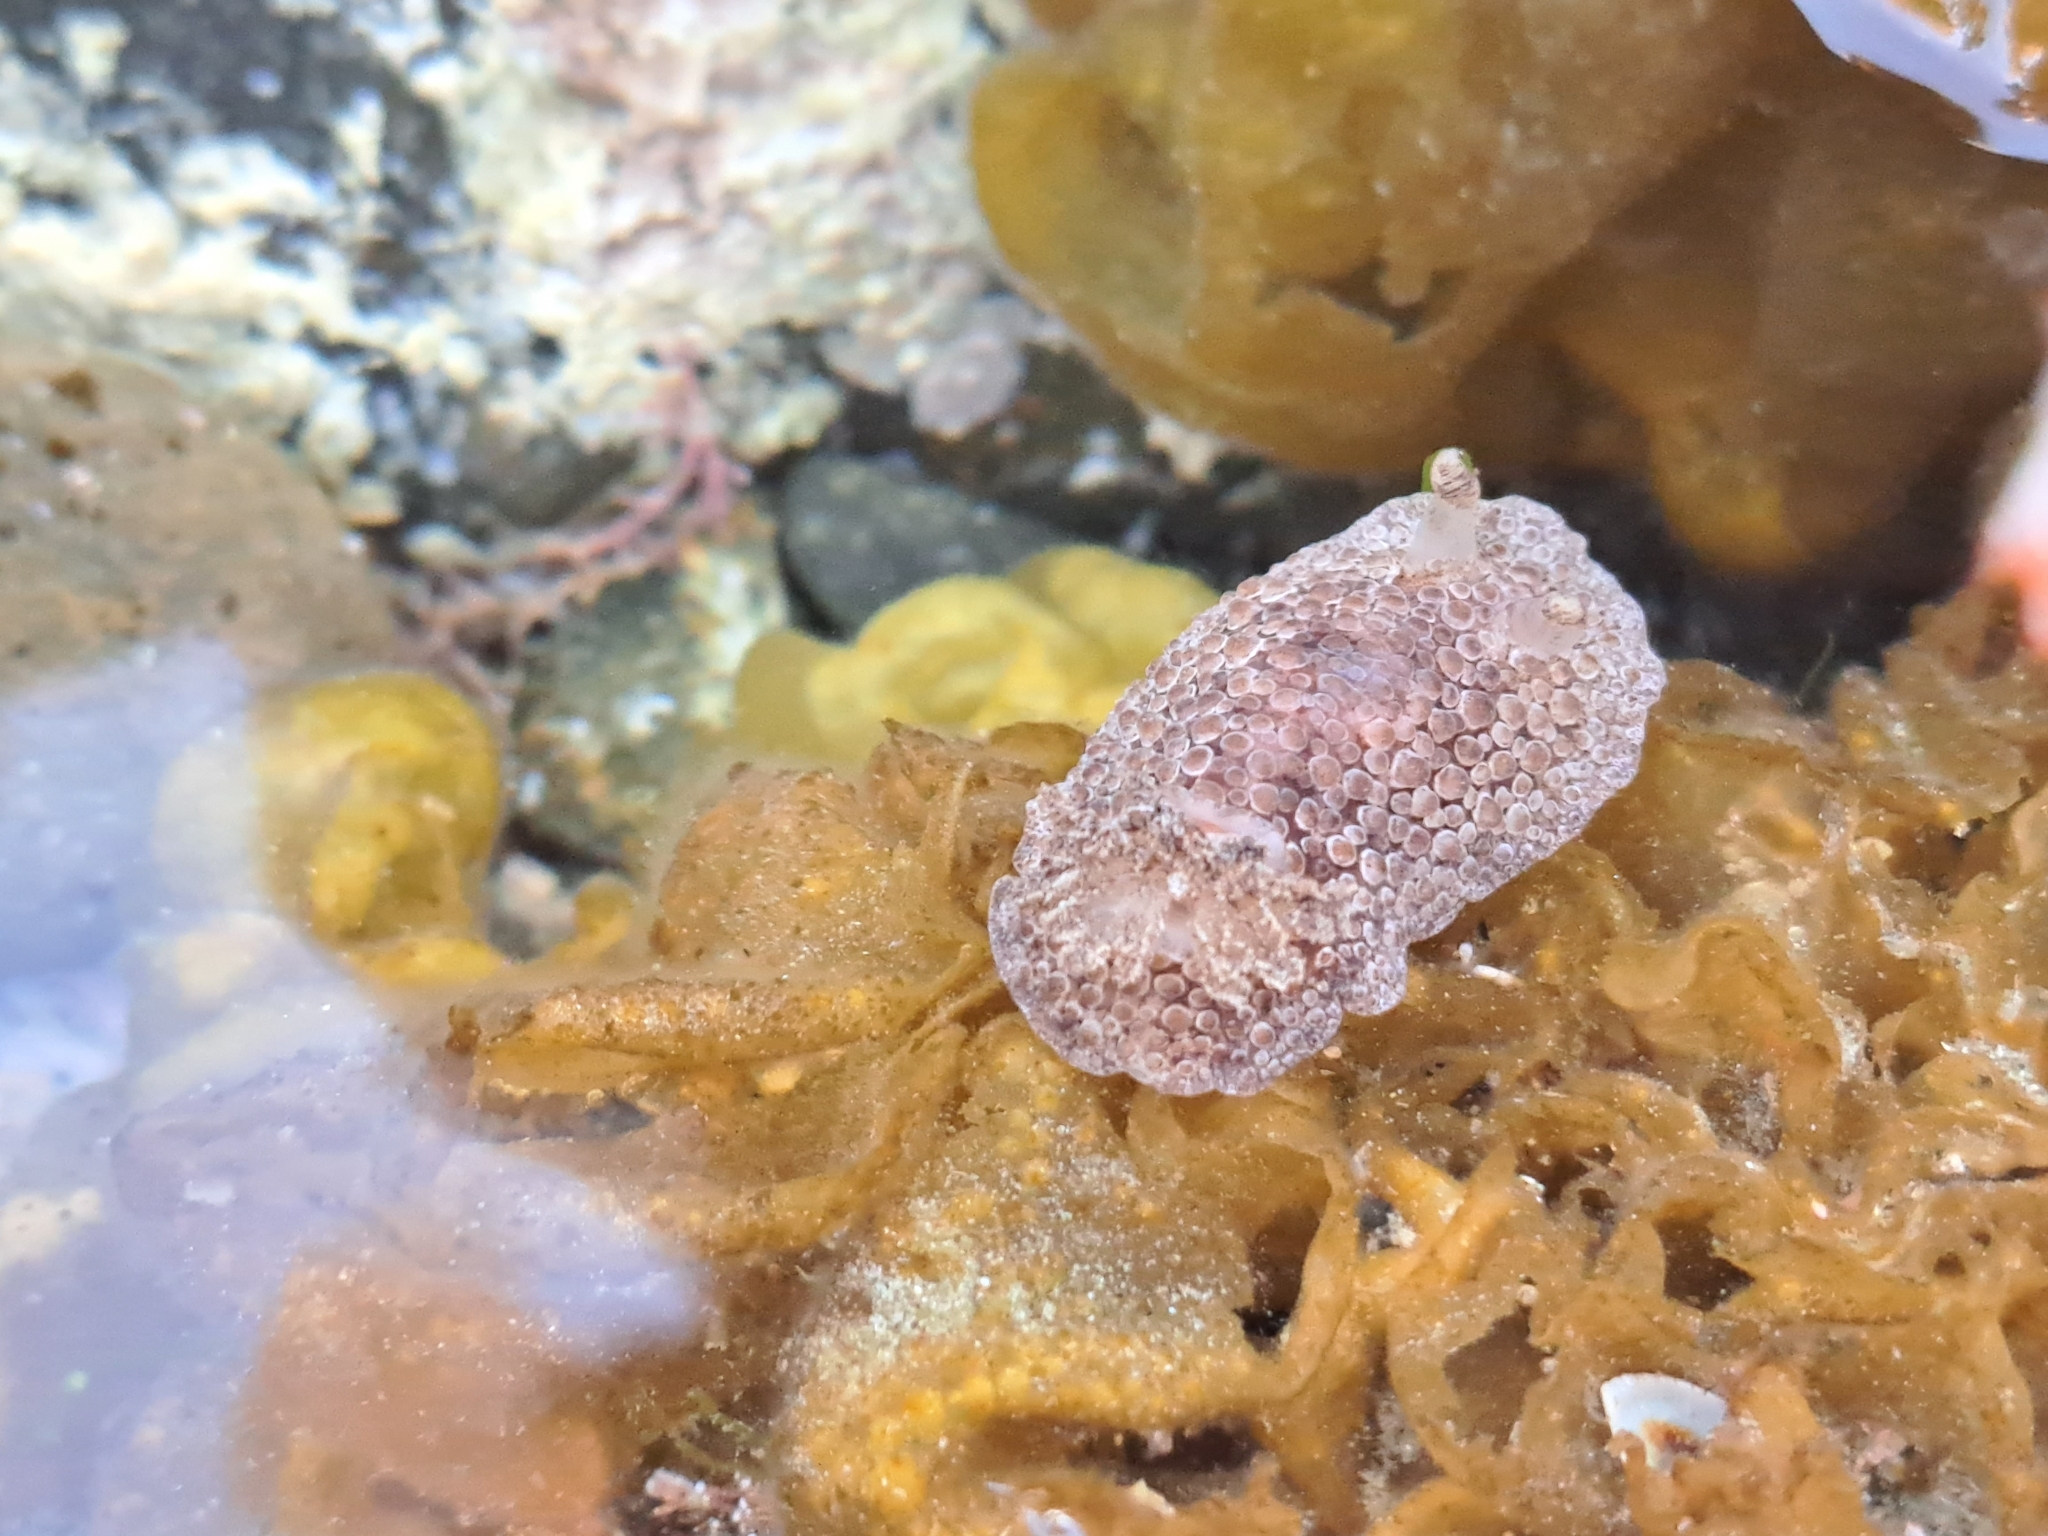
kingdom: Animalia
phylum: Mollusca
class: Gastropoda
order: Nudibranchia
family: Discodorididae
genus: Carminodoris
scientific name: Carminodoris nodulosa
